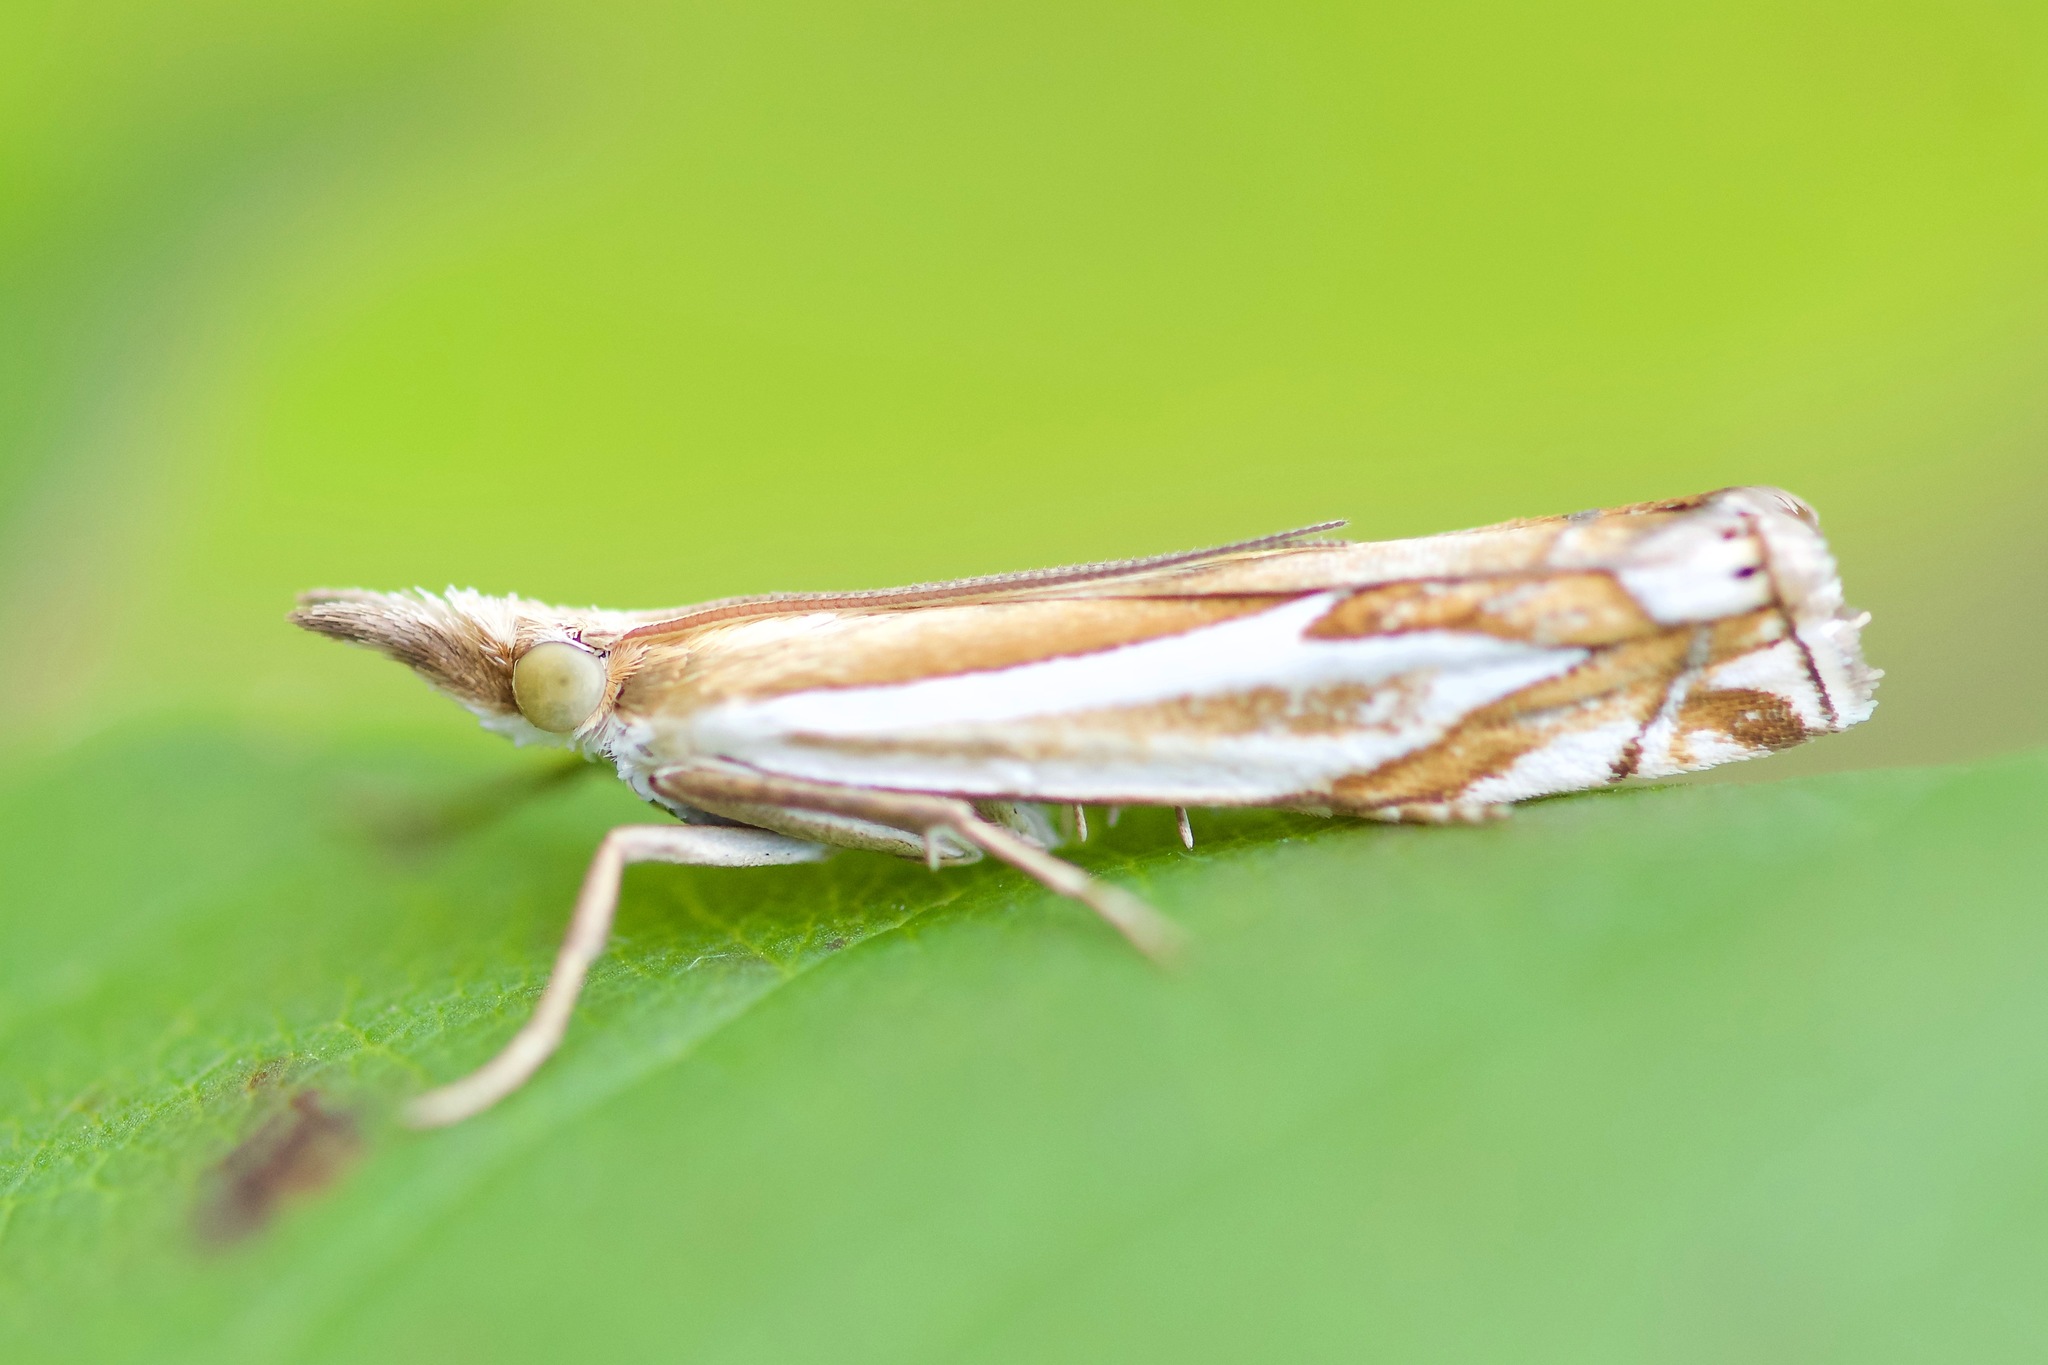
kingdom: Animalia
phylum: Arthropoda
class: Insecta
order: Lepidoptera
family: Crambidae
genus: Crambus
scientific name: Crambus bidens
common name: Forked grass-veneer
